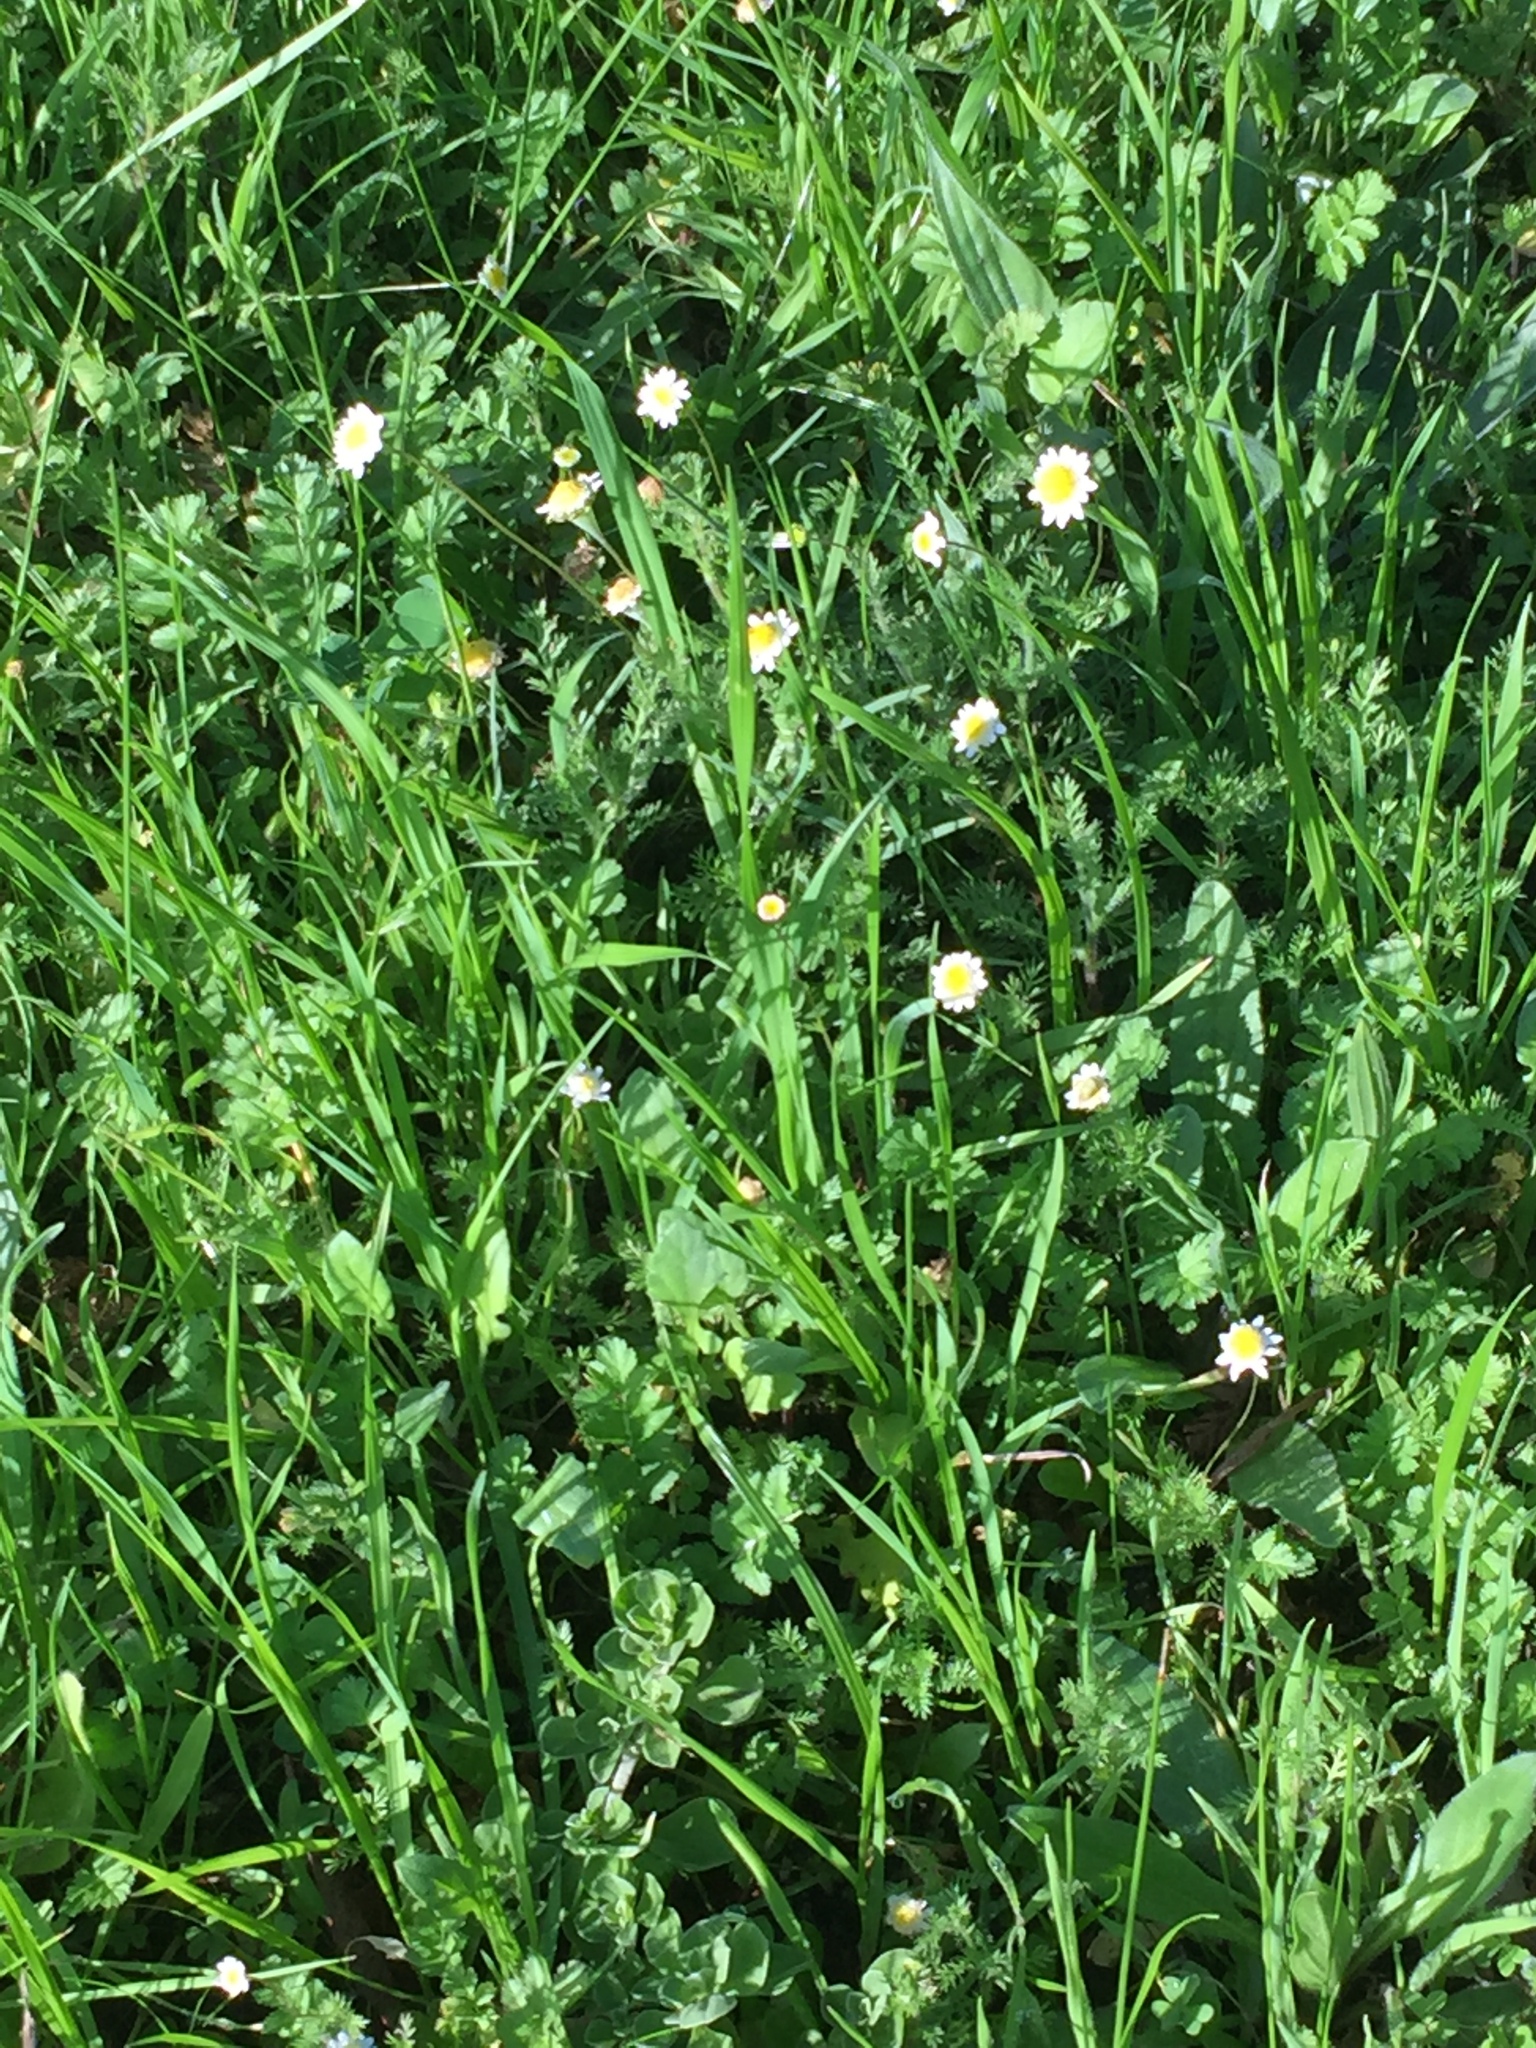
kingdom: Plantae
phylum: Tracheophyta
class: Magnoliopsida
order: Asterales
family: Asteraceae
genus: Cotula
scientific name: Cotula turbinata
